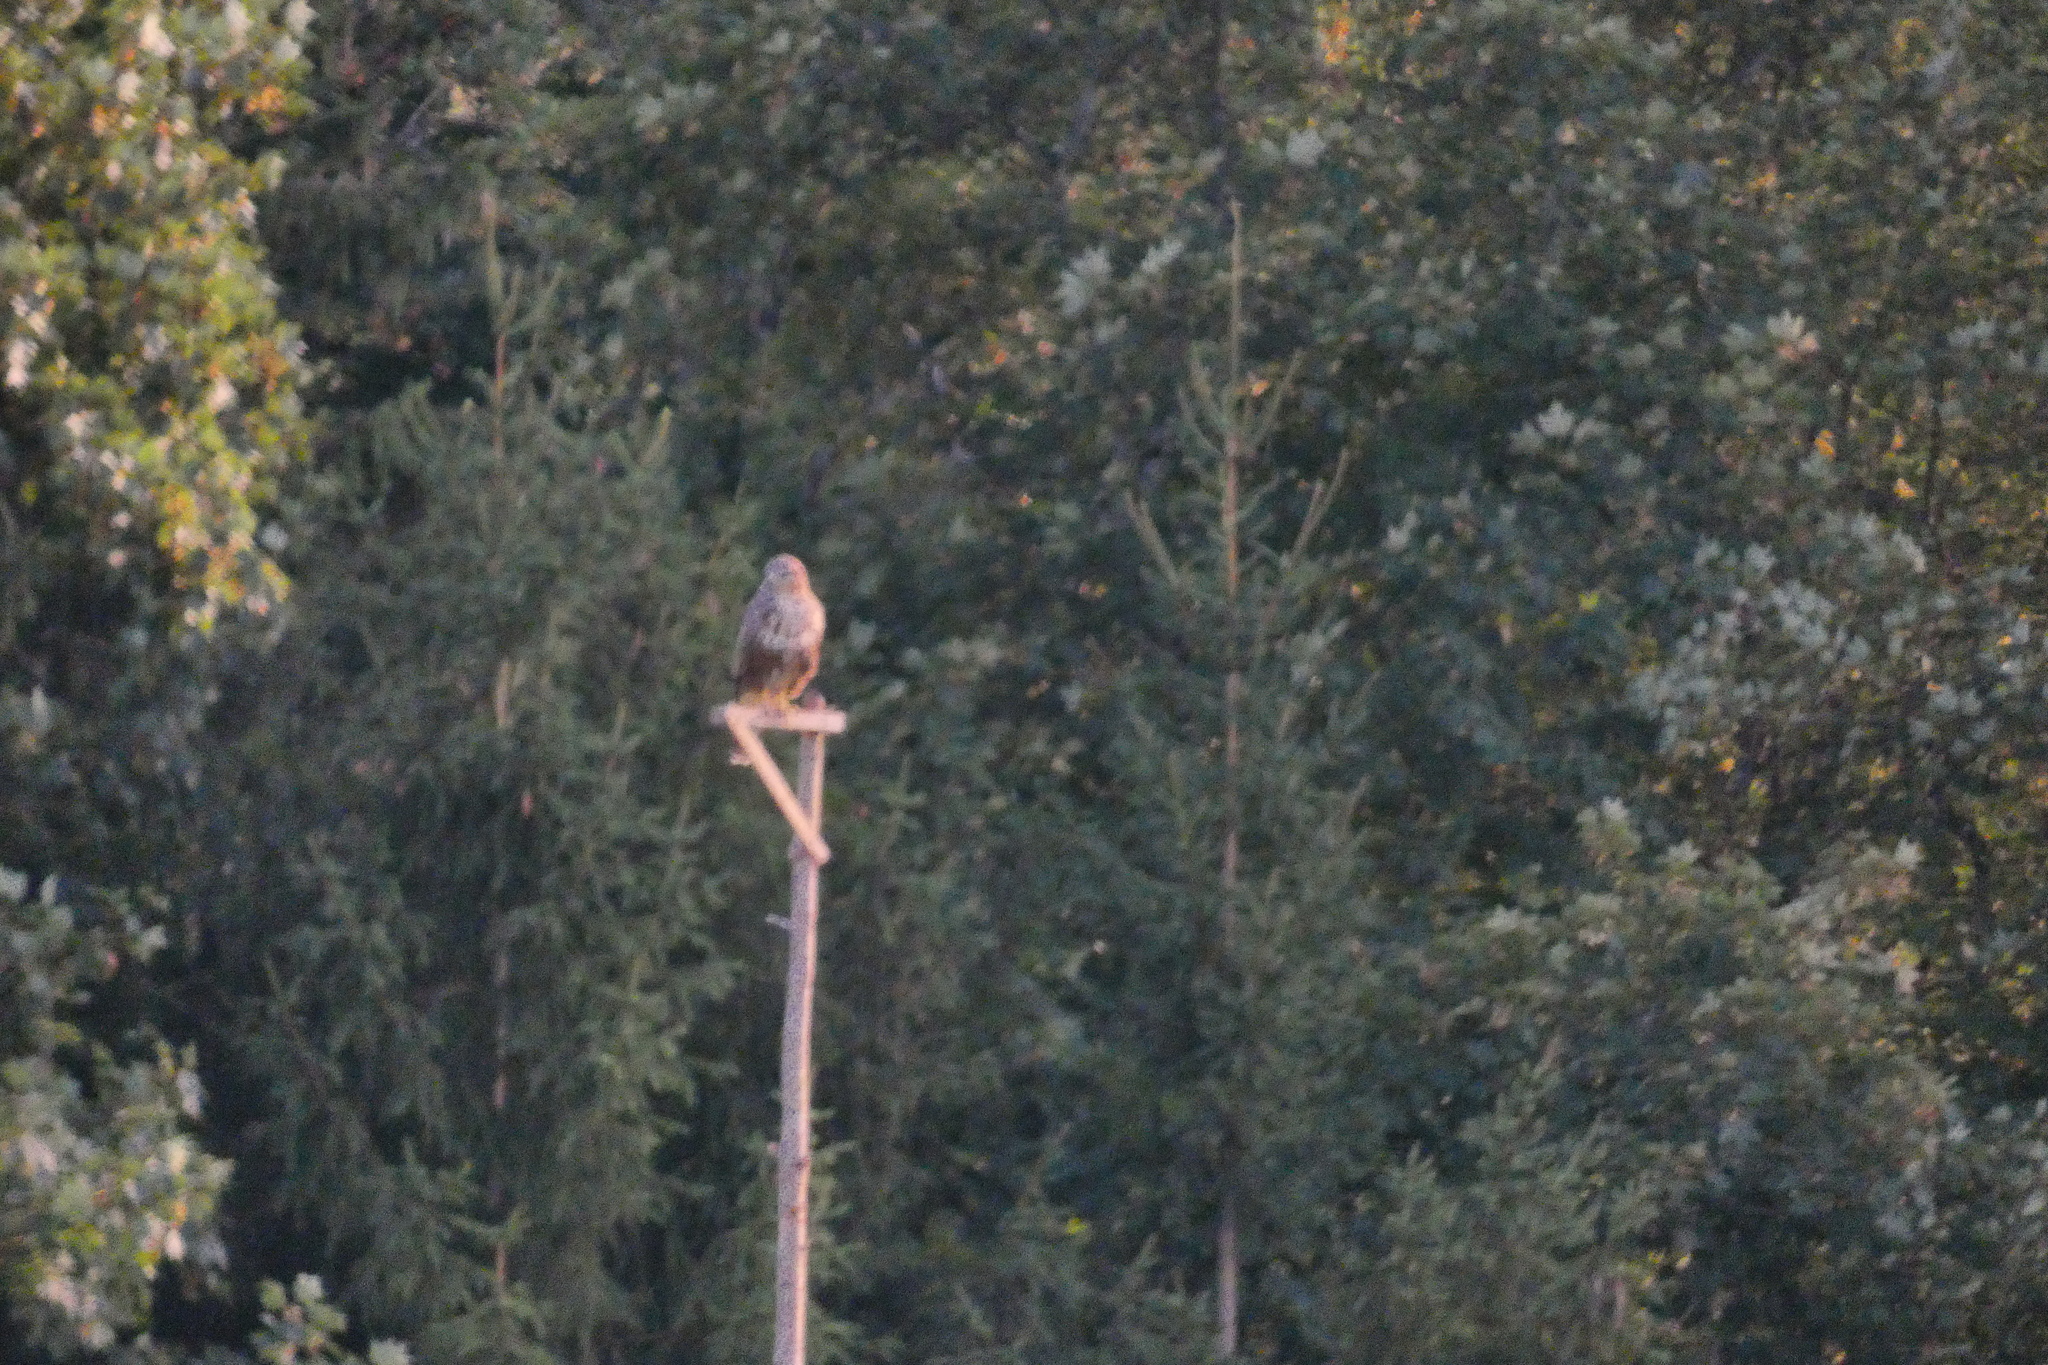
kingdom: Animalia
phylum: Chordata
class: Aves
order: Accipitriformes
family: Accipitridae
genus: Buteo
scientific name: Buteo buteo
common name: Common buzzard
